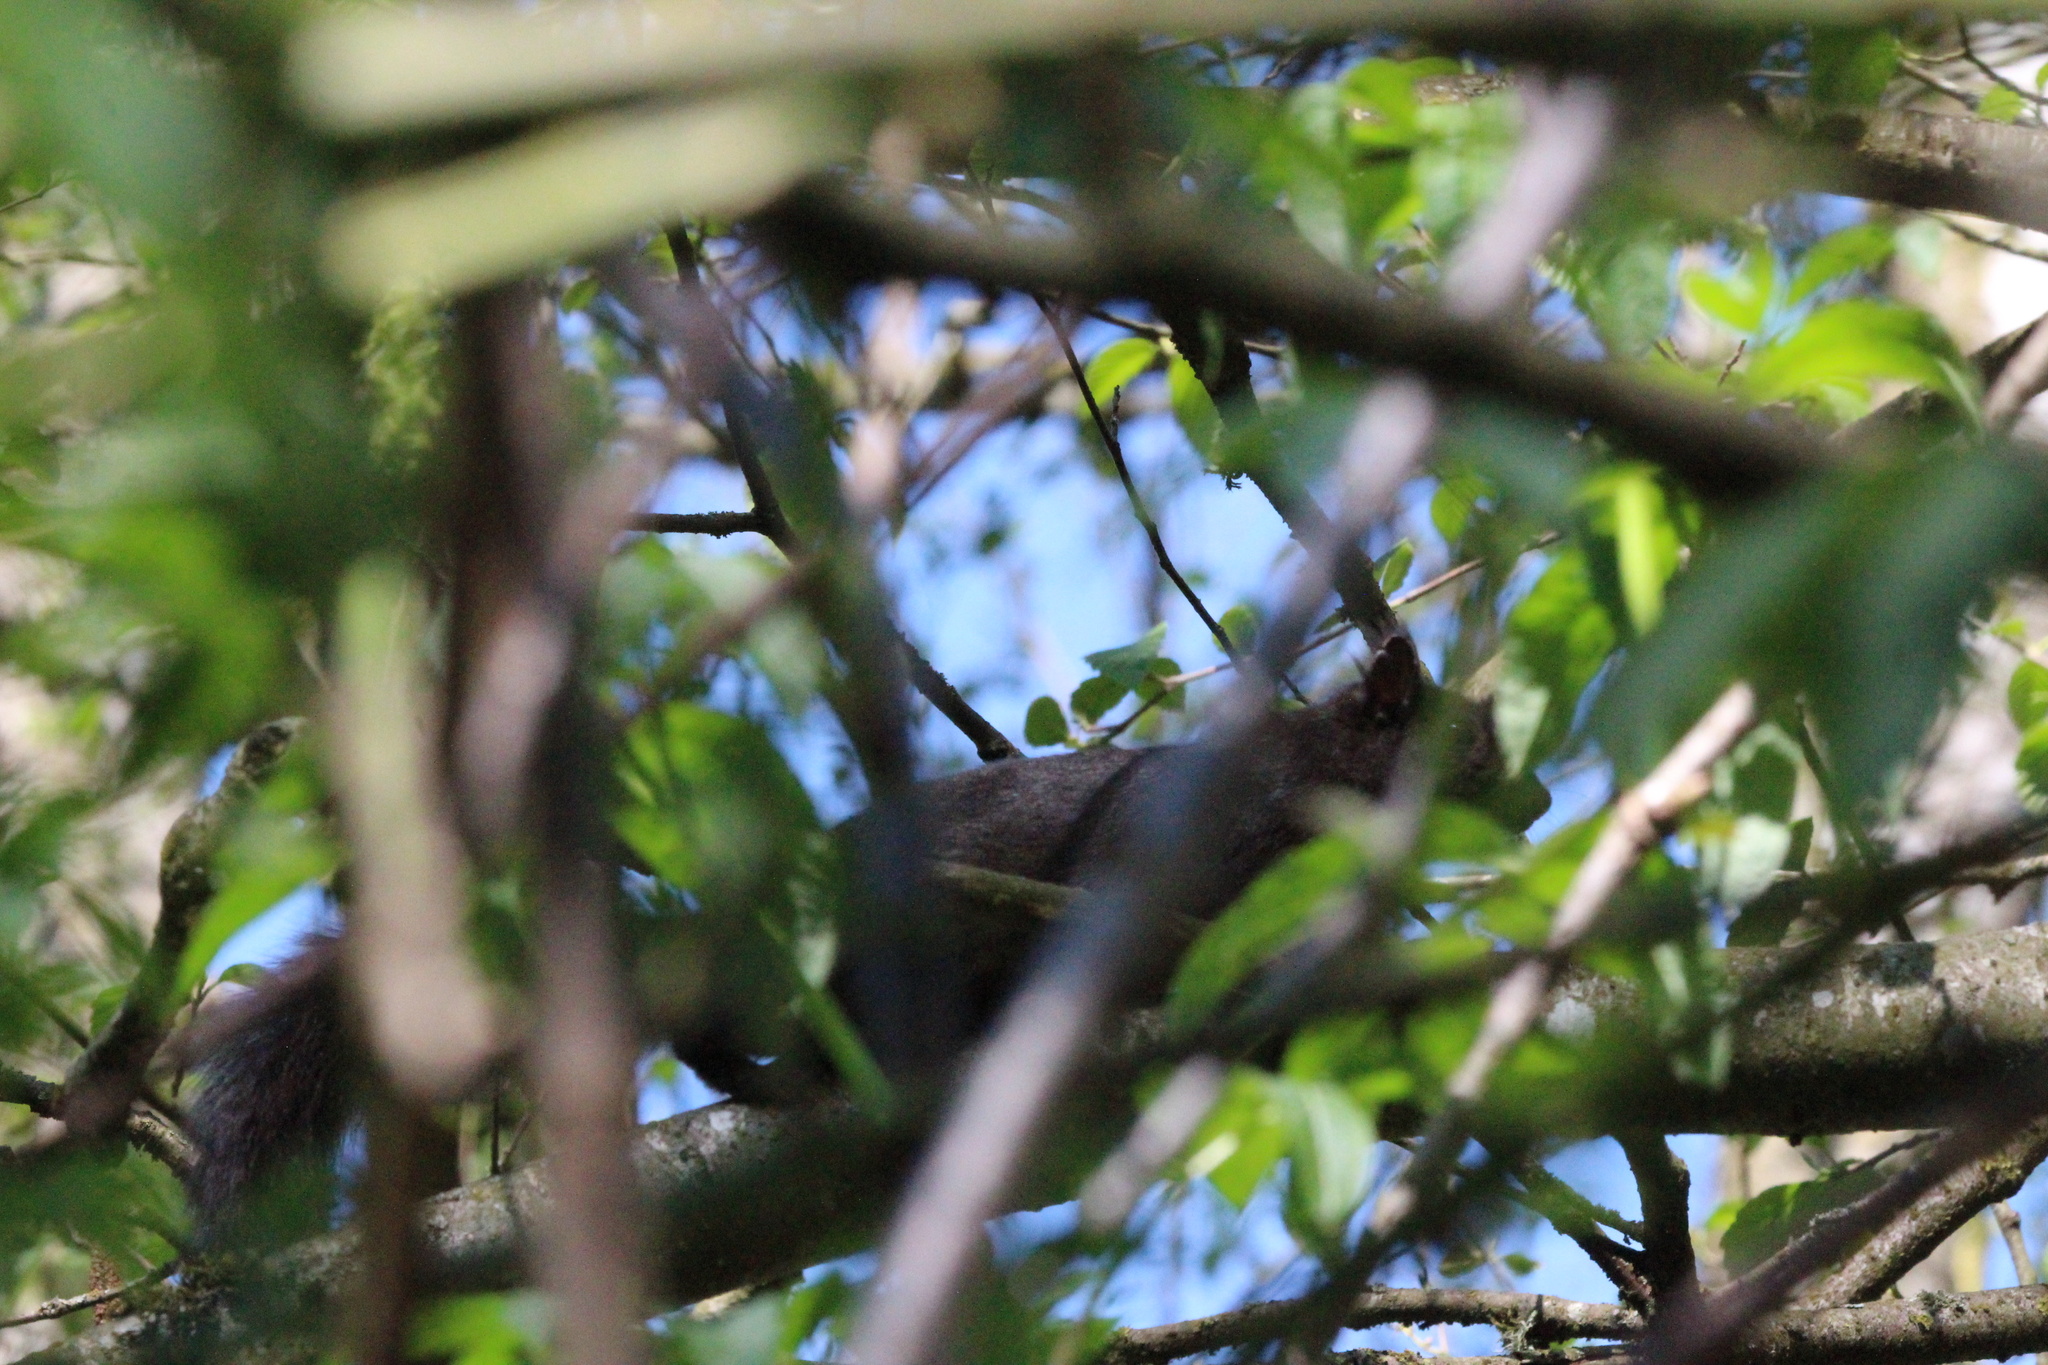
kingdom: Animalia
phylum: Chordata
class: Mammalia
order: Rodentia
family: Sciuridae
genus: Sciurus
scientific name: Sciurus carolinensis
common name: Eastern gray squirrel
